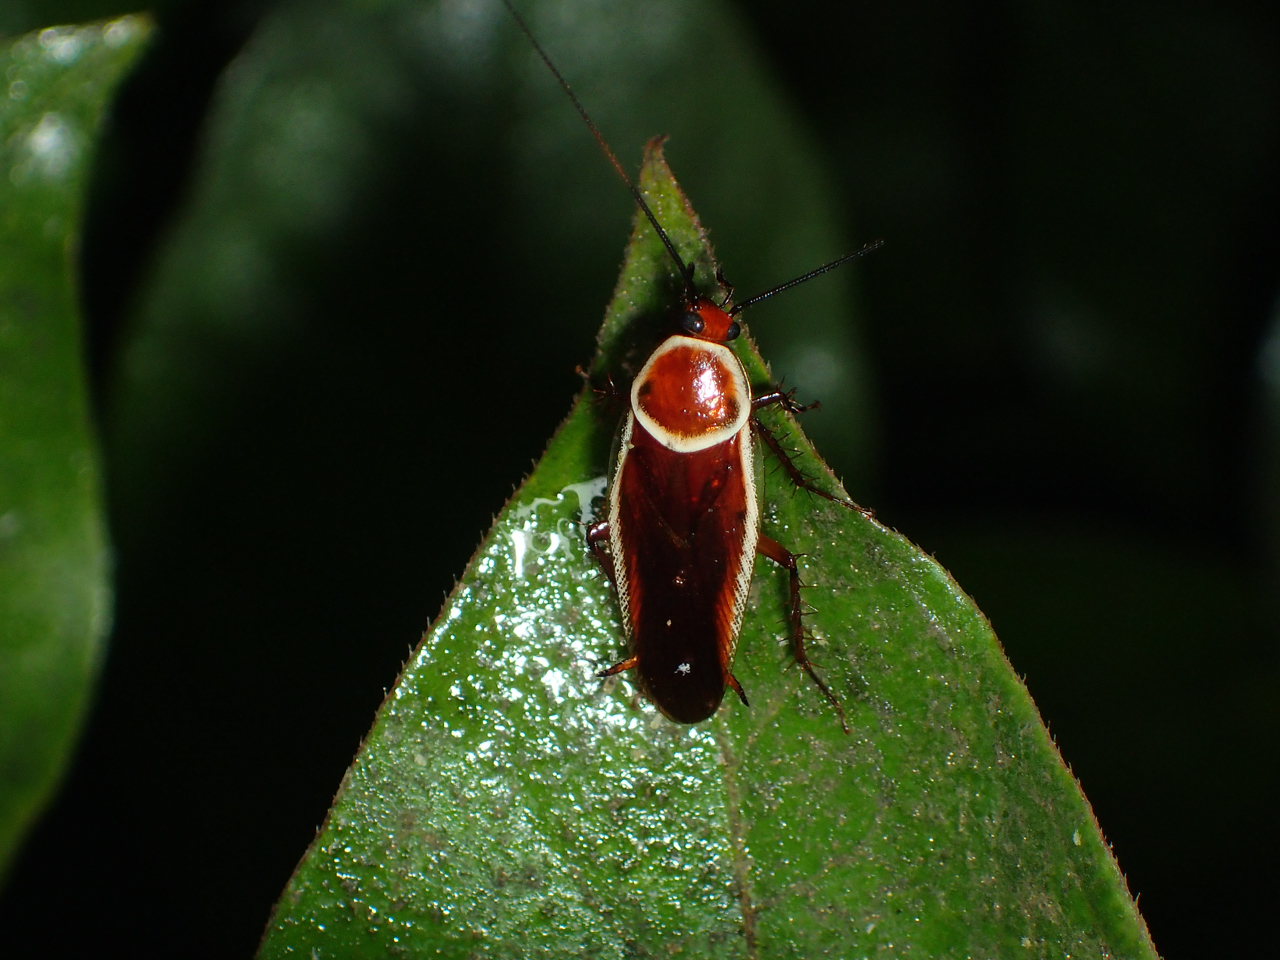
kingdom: Animalia
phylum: Arthropoda
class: Insecta
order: Blattodea
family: Ectobiidae
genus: Pseudomops
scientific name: Pseudomops septentrionalis
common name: Pale-bordered field cockroach
